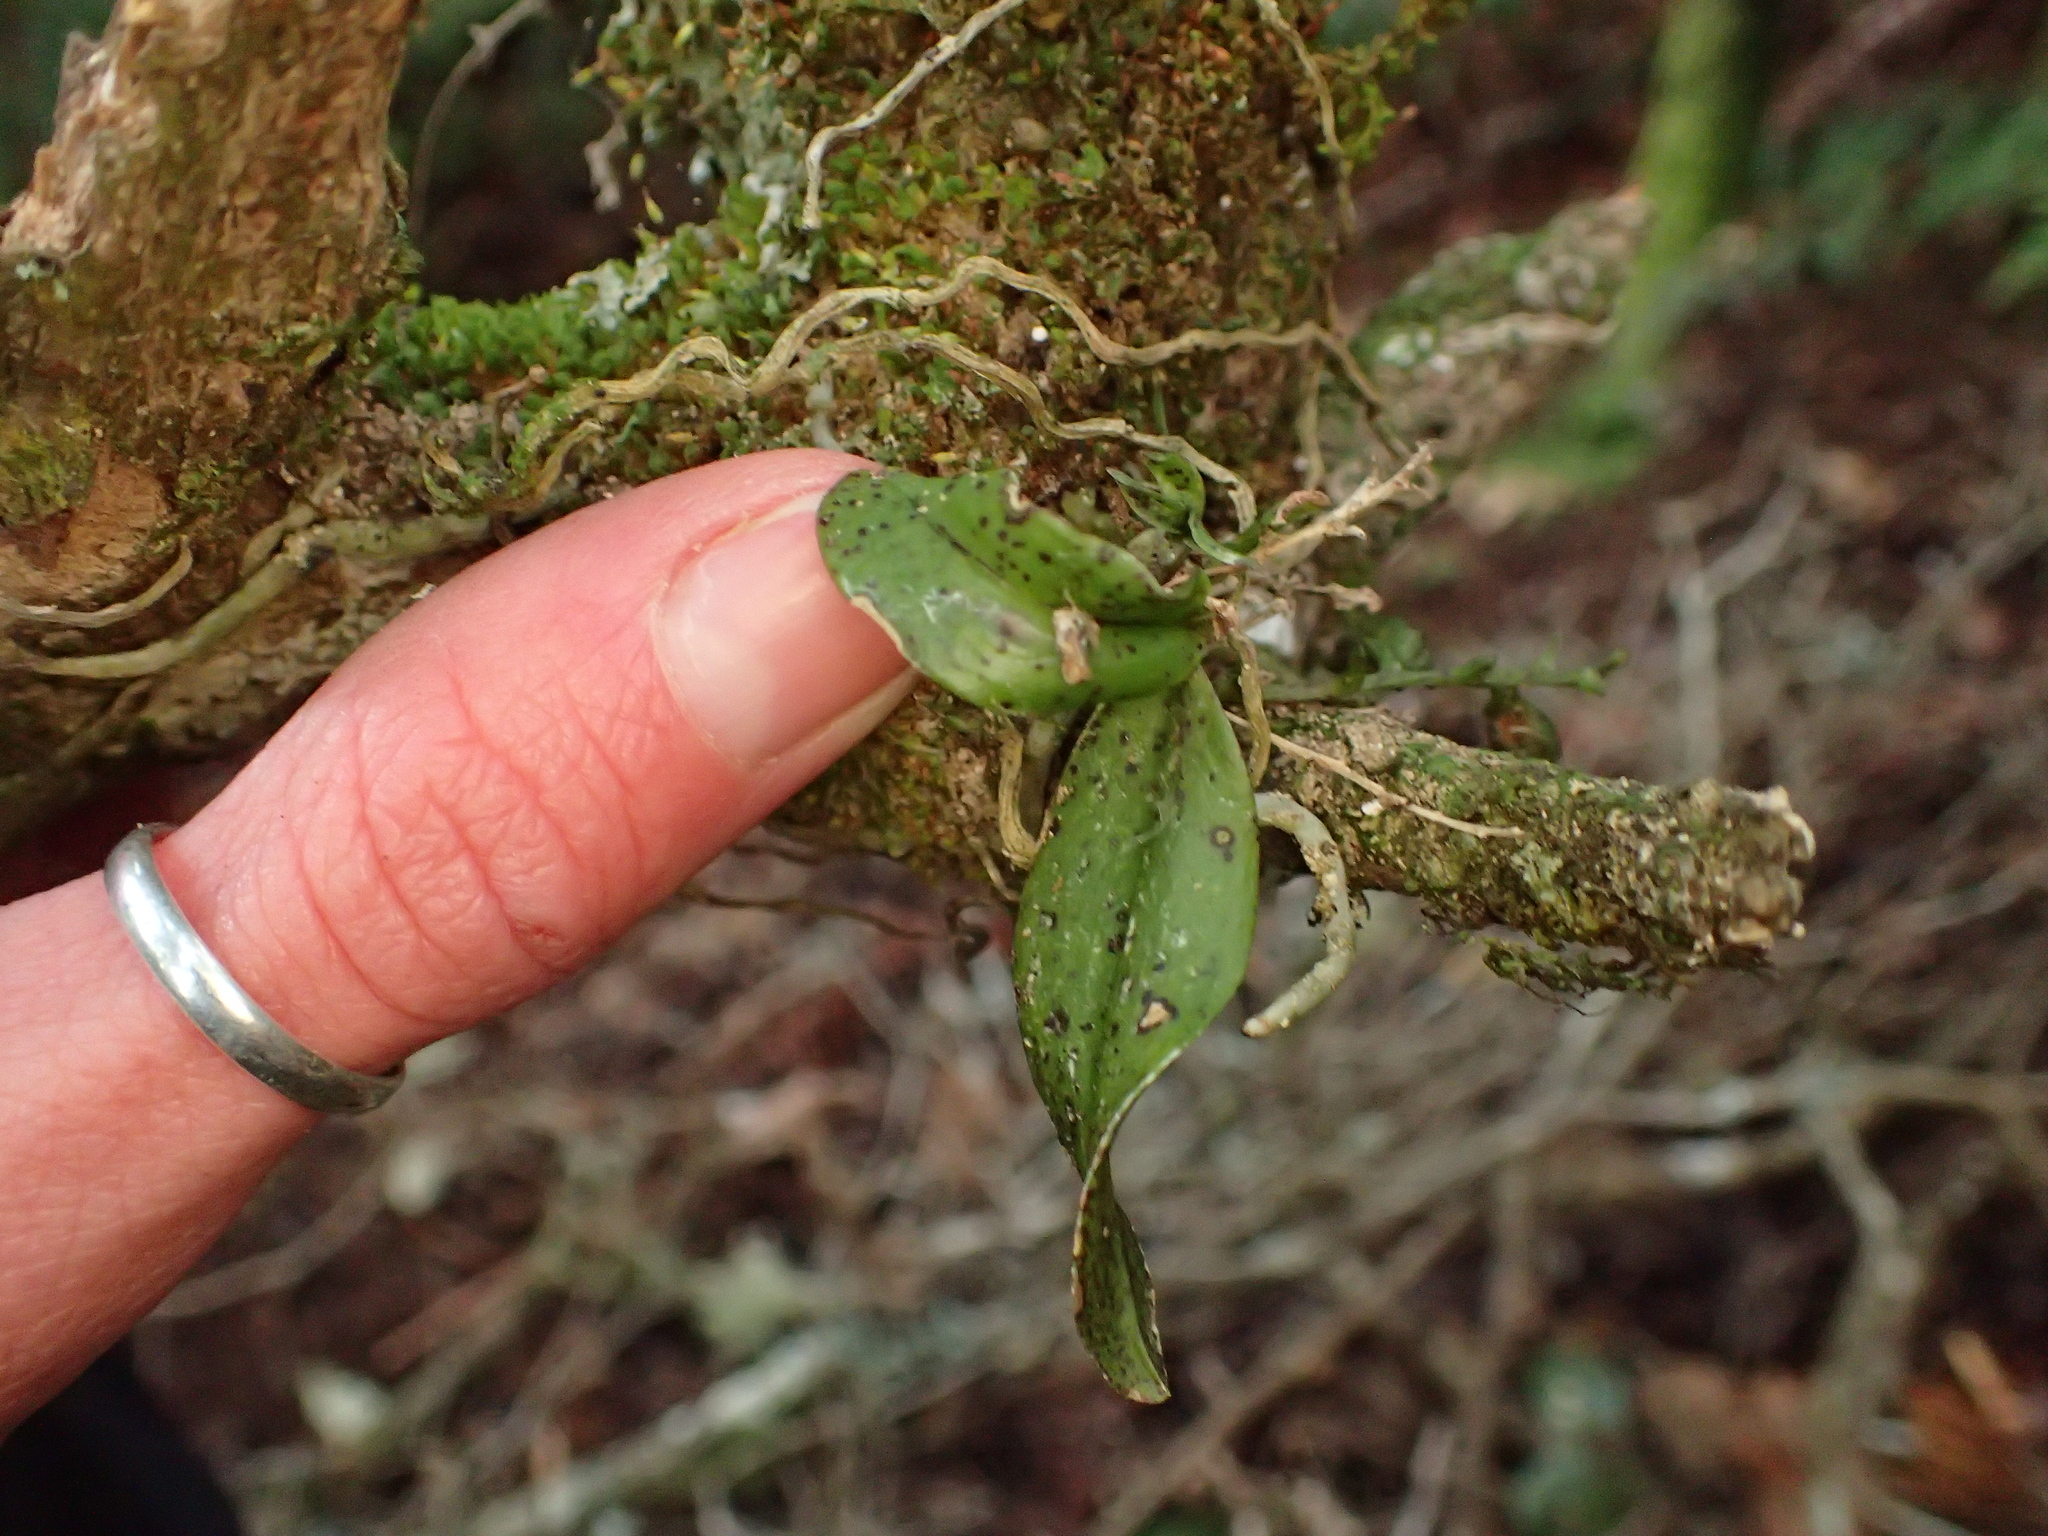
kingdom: Plantae
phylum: Tracheophyta
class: Liliopsida
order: Asparagales
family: Orchidaceae
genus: Drymoanthus
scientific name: Drymoanthus flavus
